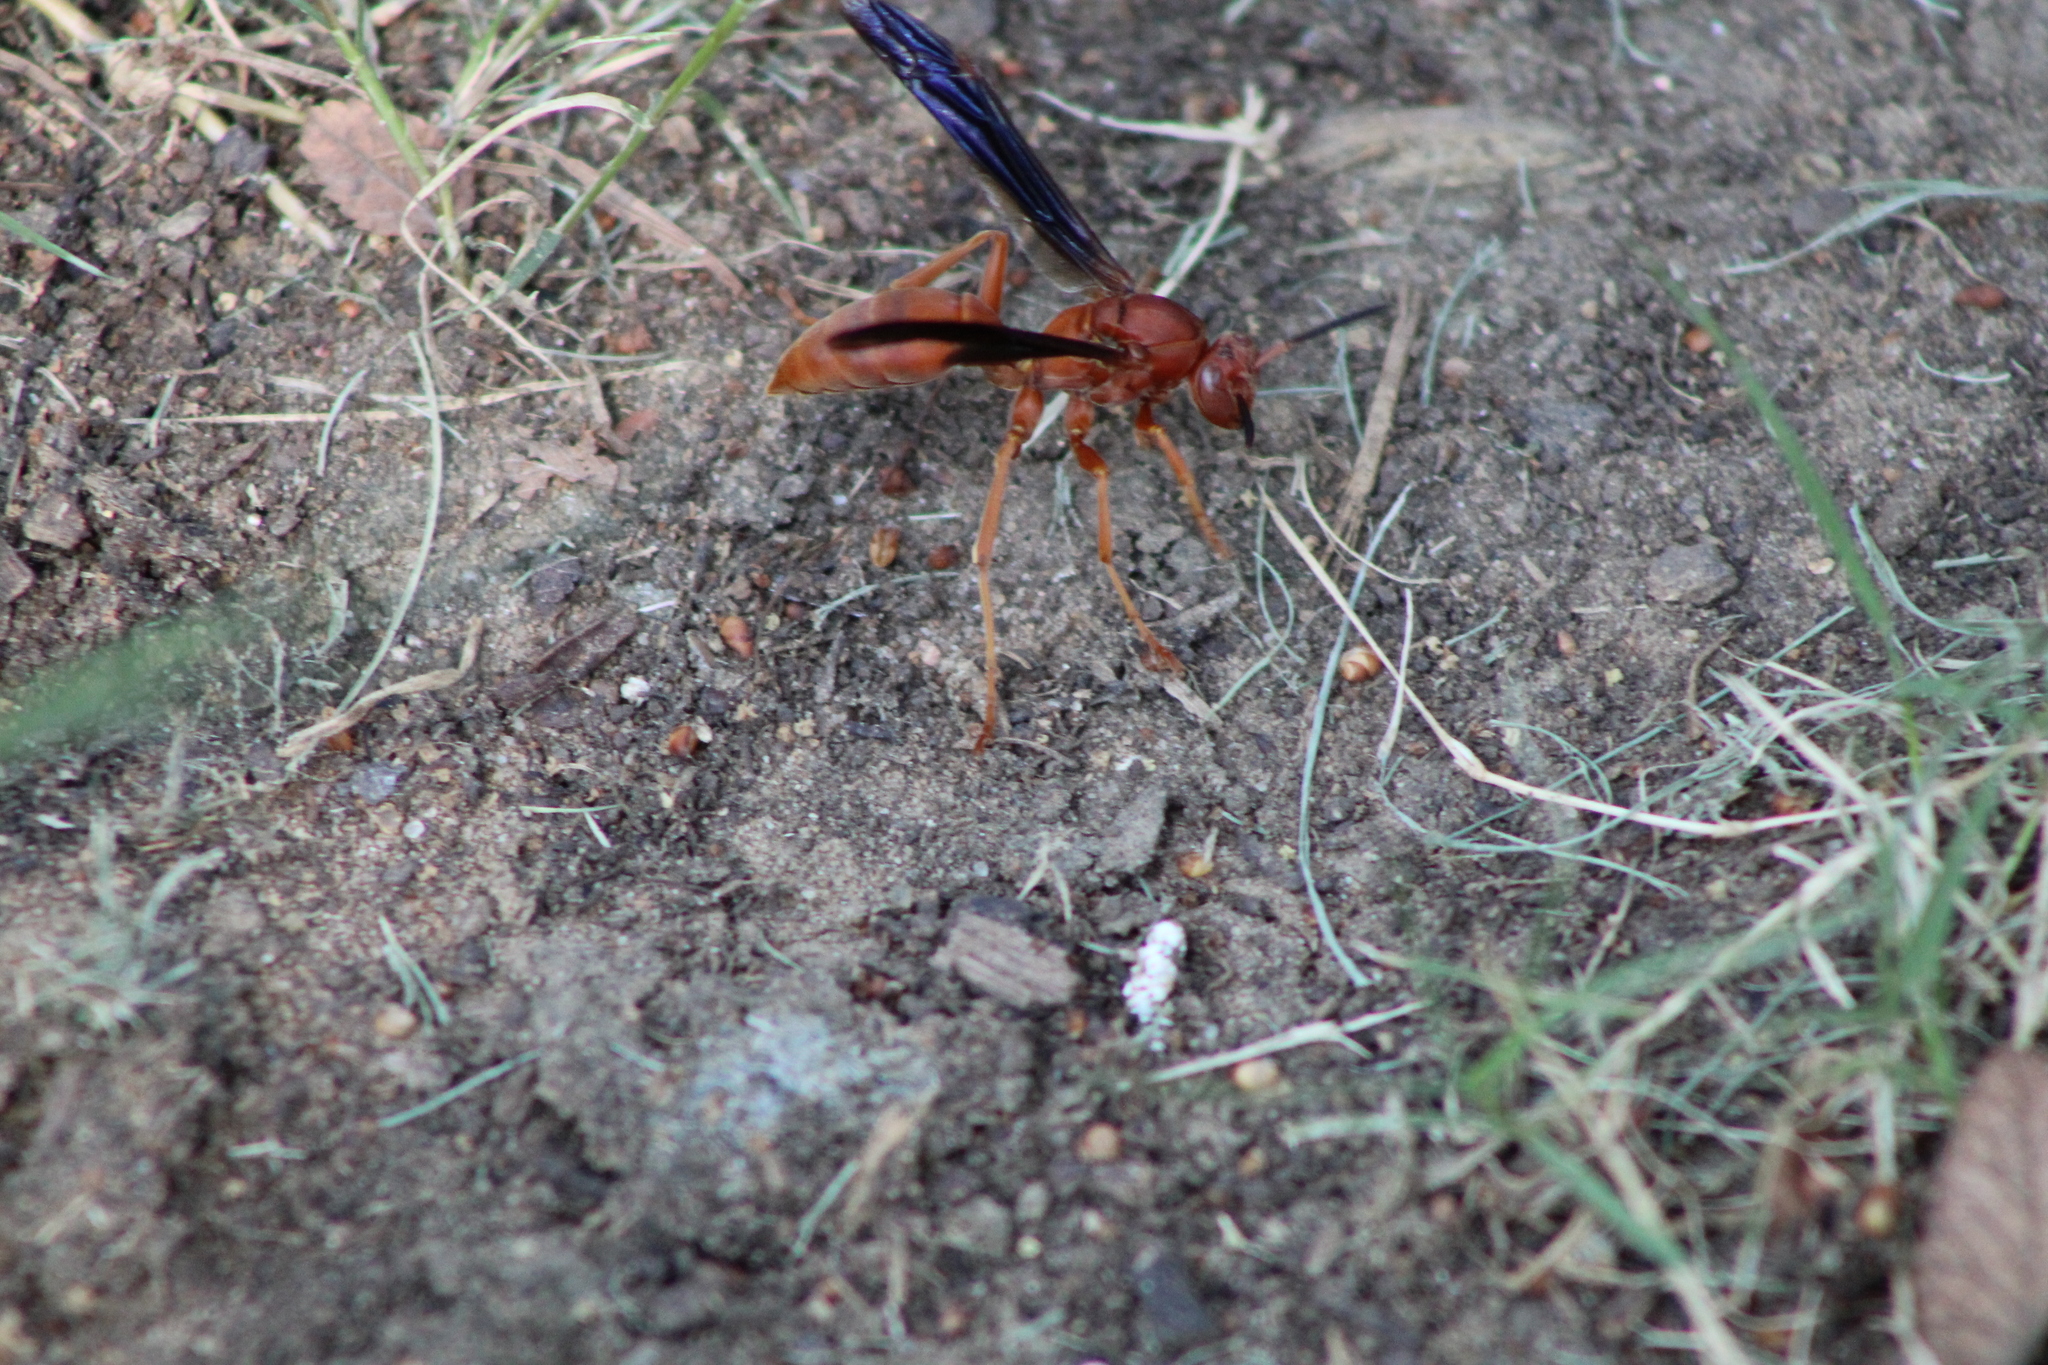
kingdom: Animalia
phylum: Arthropoda
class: Insecta
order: Hymenoptera
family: Vespidae
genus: Fuscopolistes
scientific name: Fuscopolistes
